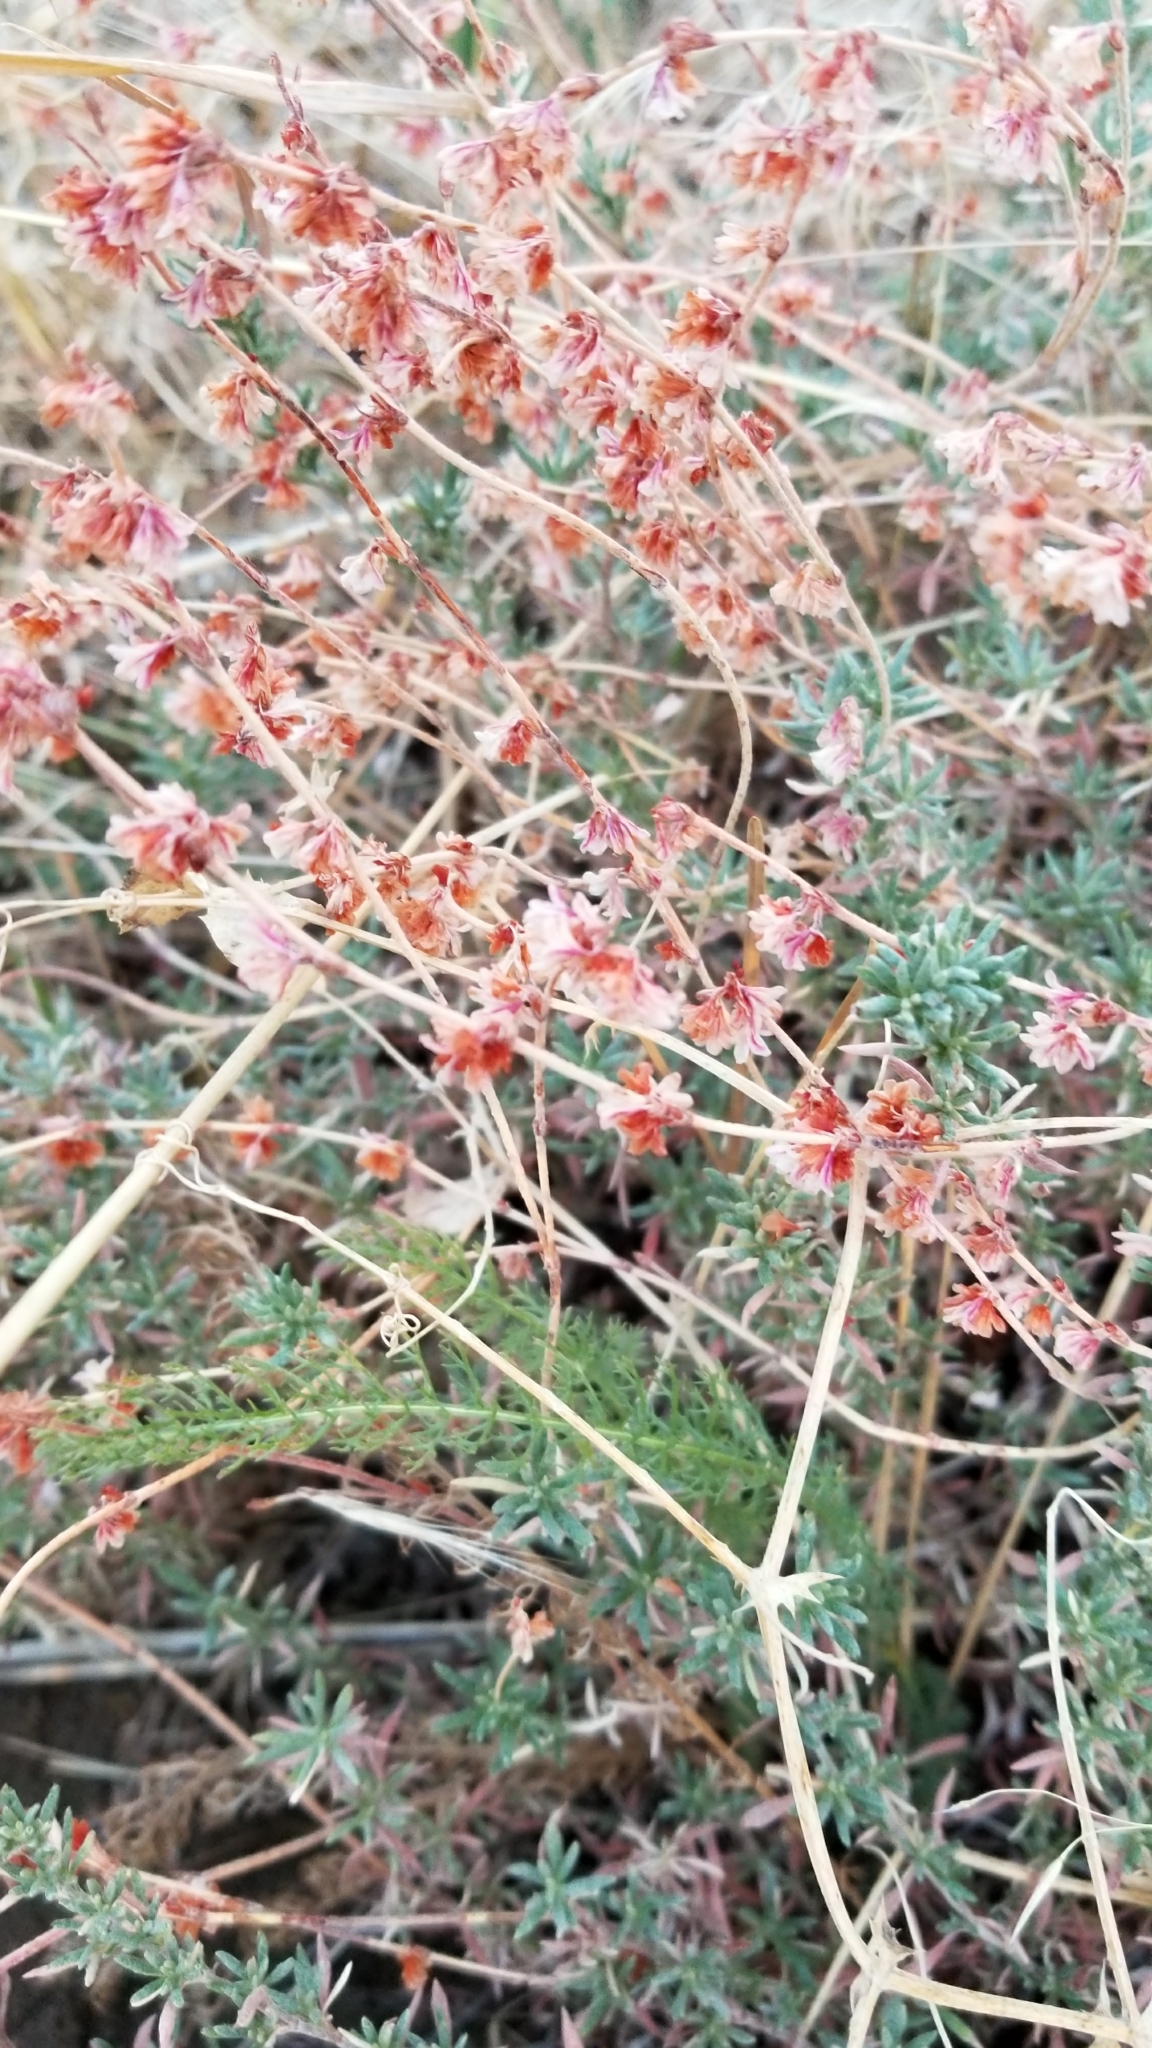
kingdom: Plantae
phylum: Tracheophyta
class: Magnoliopsida
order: Caryophyllales
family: Polygonaceae
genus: Eriogonum
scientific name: Eriogonum wrightii
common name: Bastard-sage
